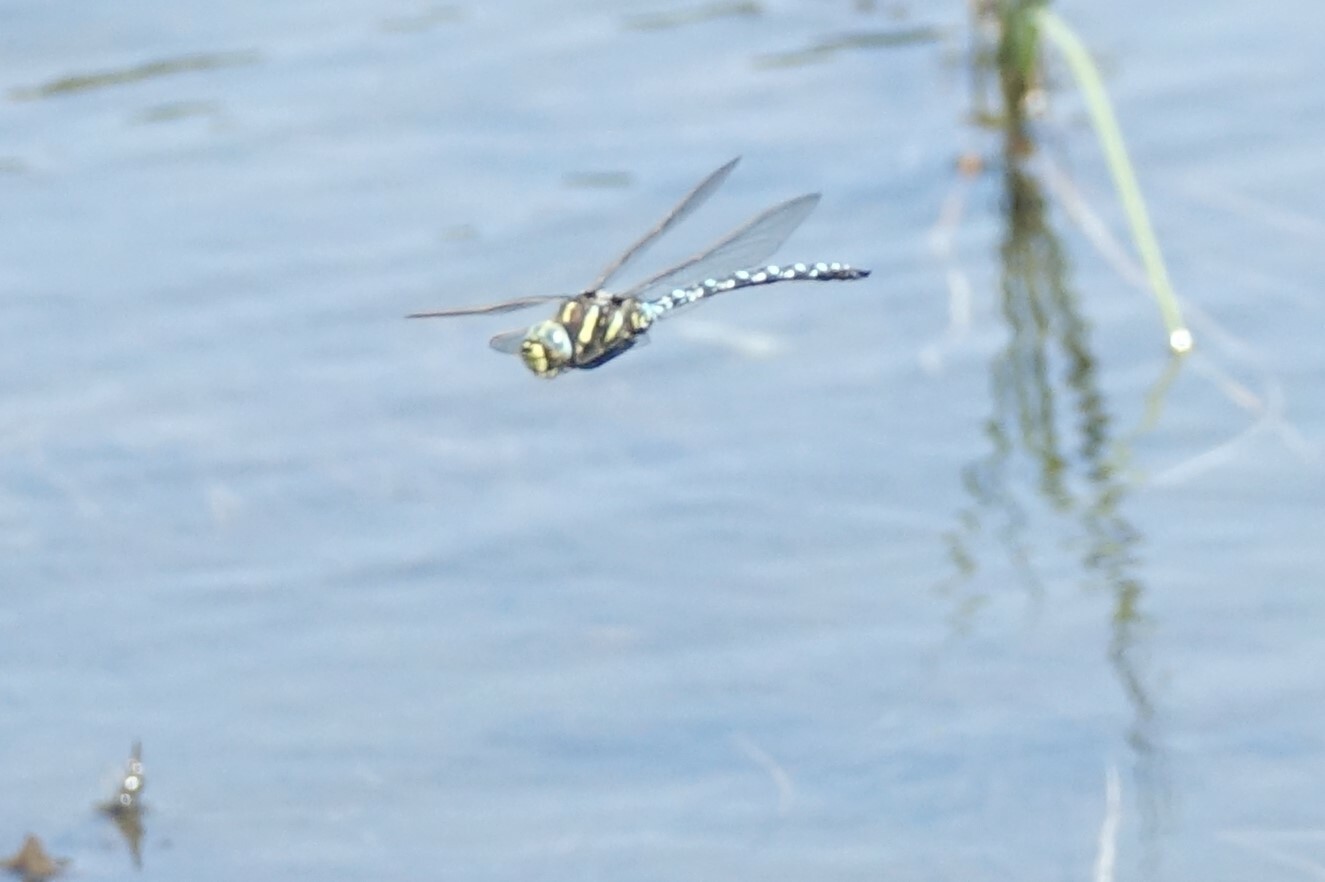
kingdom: Animalia
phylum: Arthropoda
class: Insecta
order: Odonata
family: Aeshnidae
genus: Aeshna
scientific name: Aeshna juncea
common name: Moorland hawker
